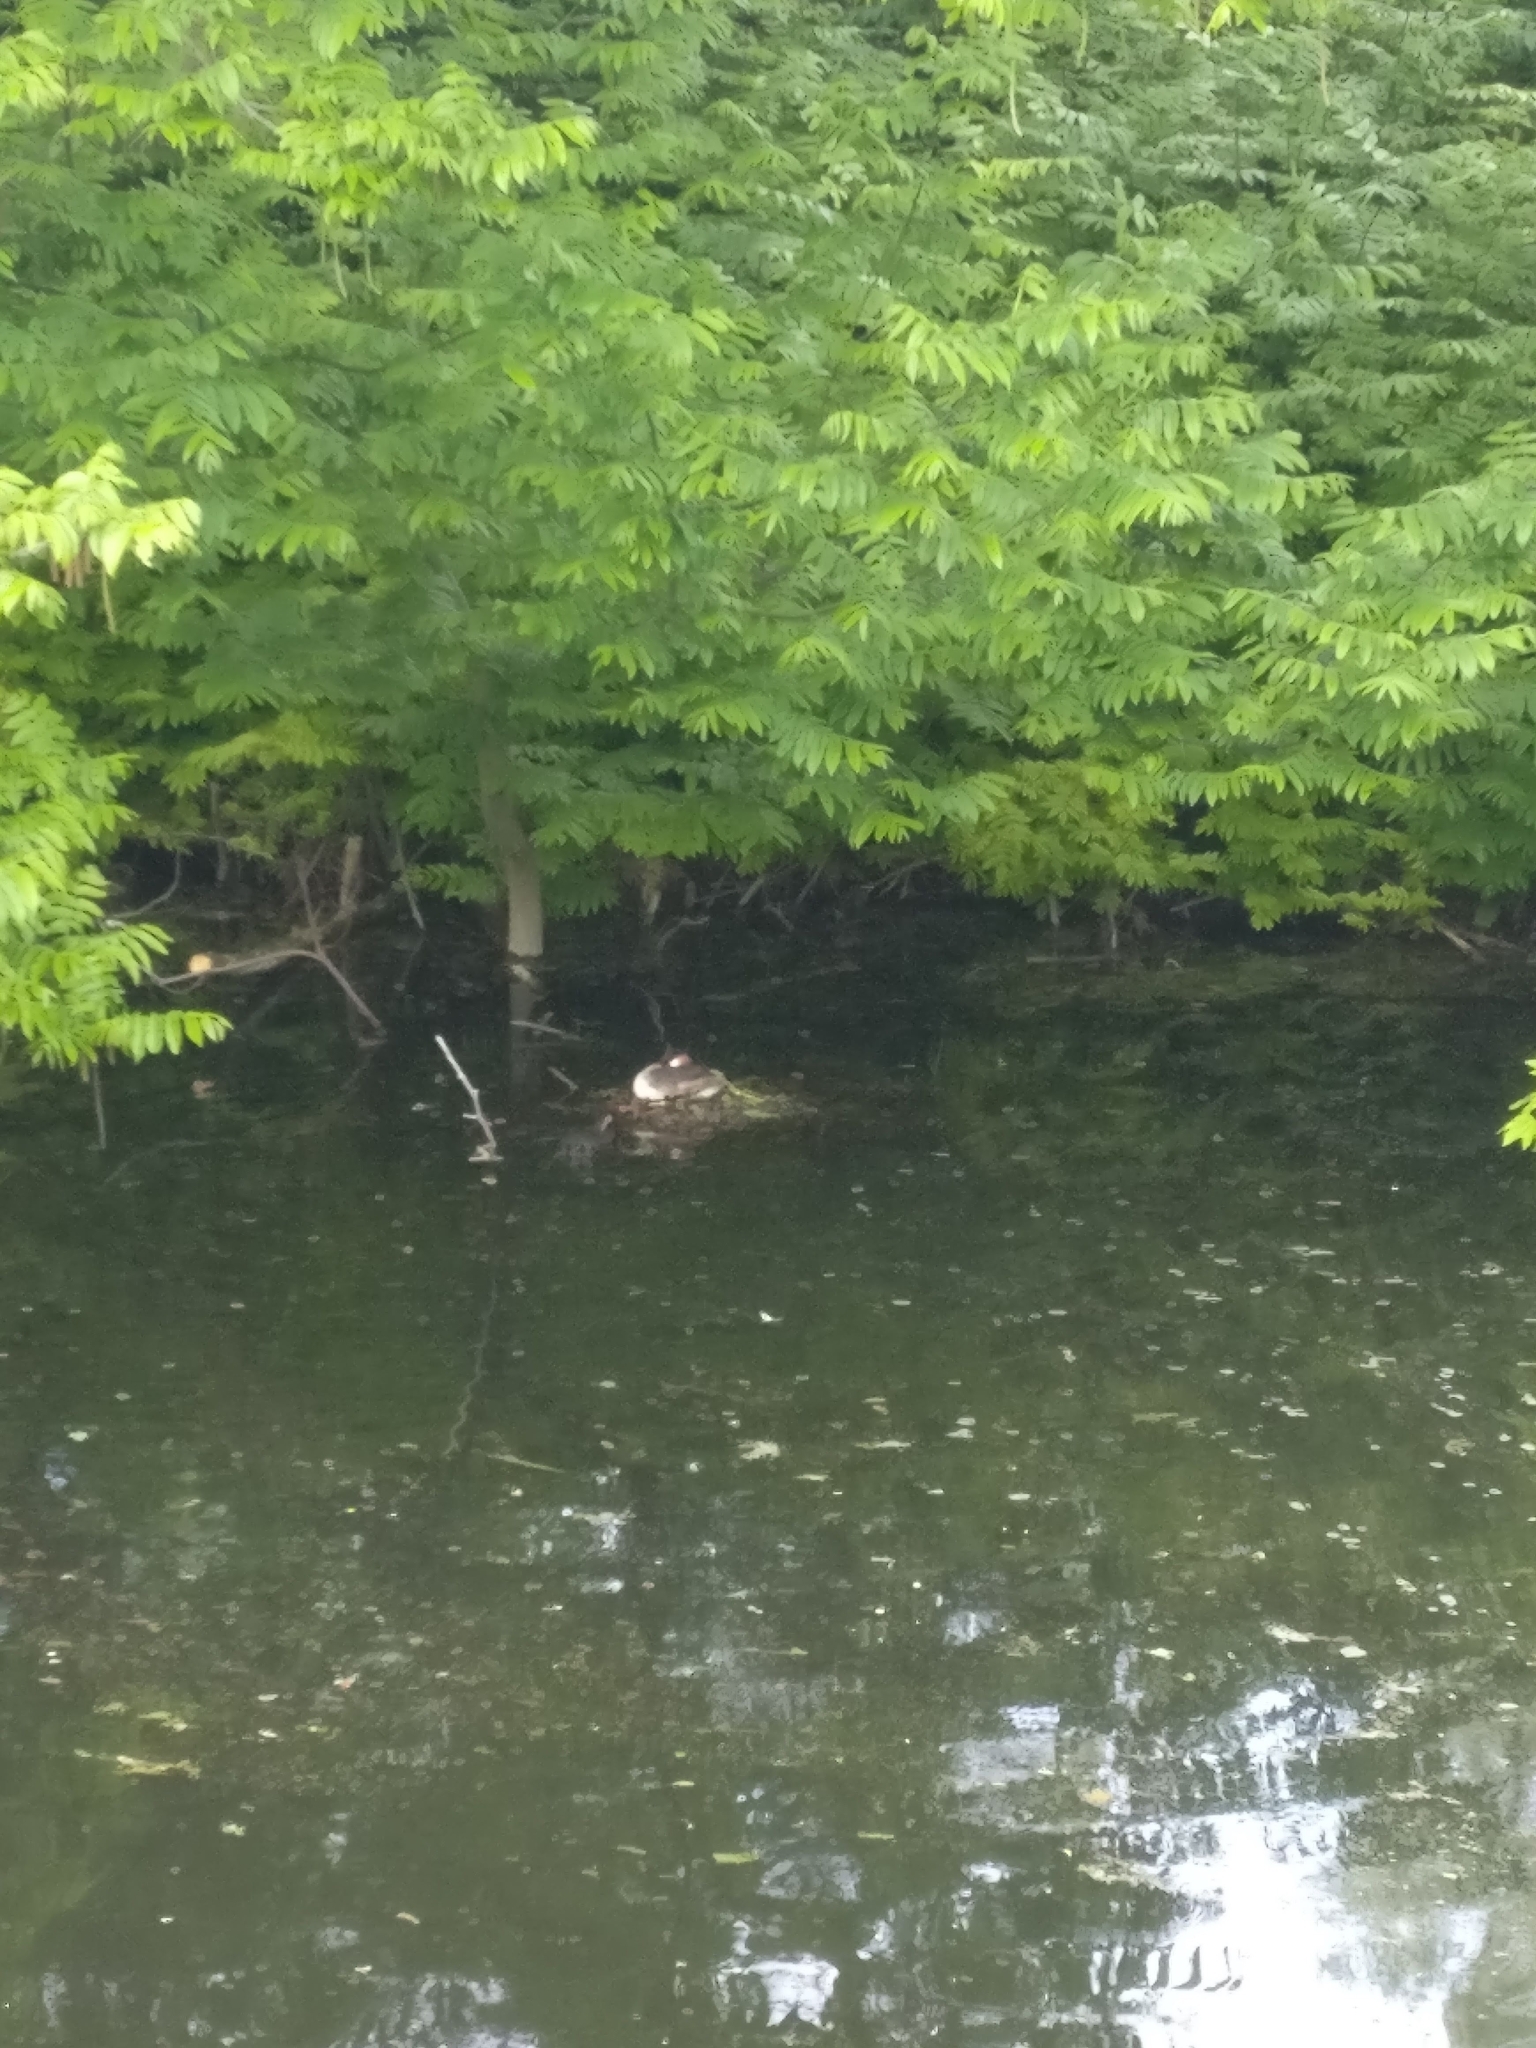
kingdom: Animalia
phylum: Chordata
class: Aves
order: Podicipediformes
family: Podicipedidae
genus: Podiceps
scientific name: Podiceps cristatus
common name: Great crested grebe
